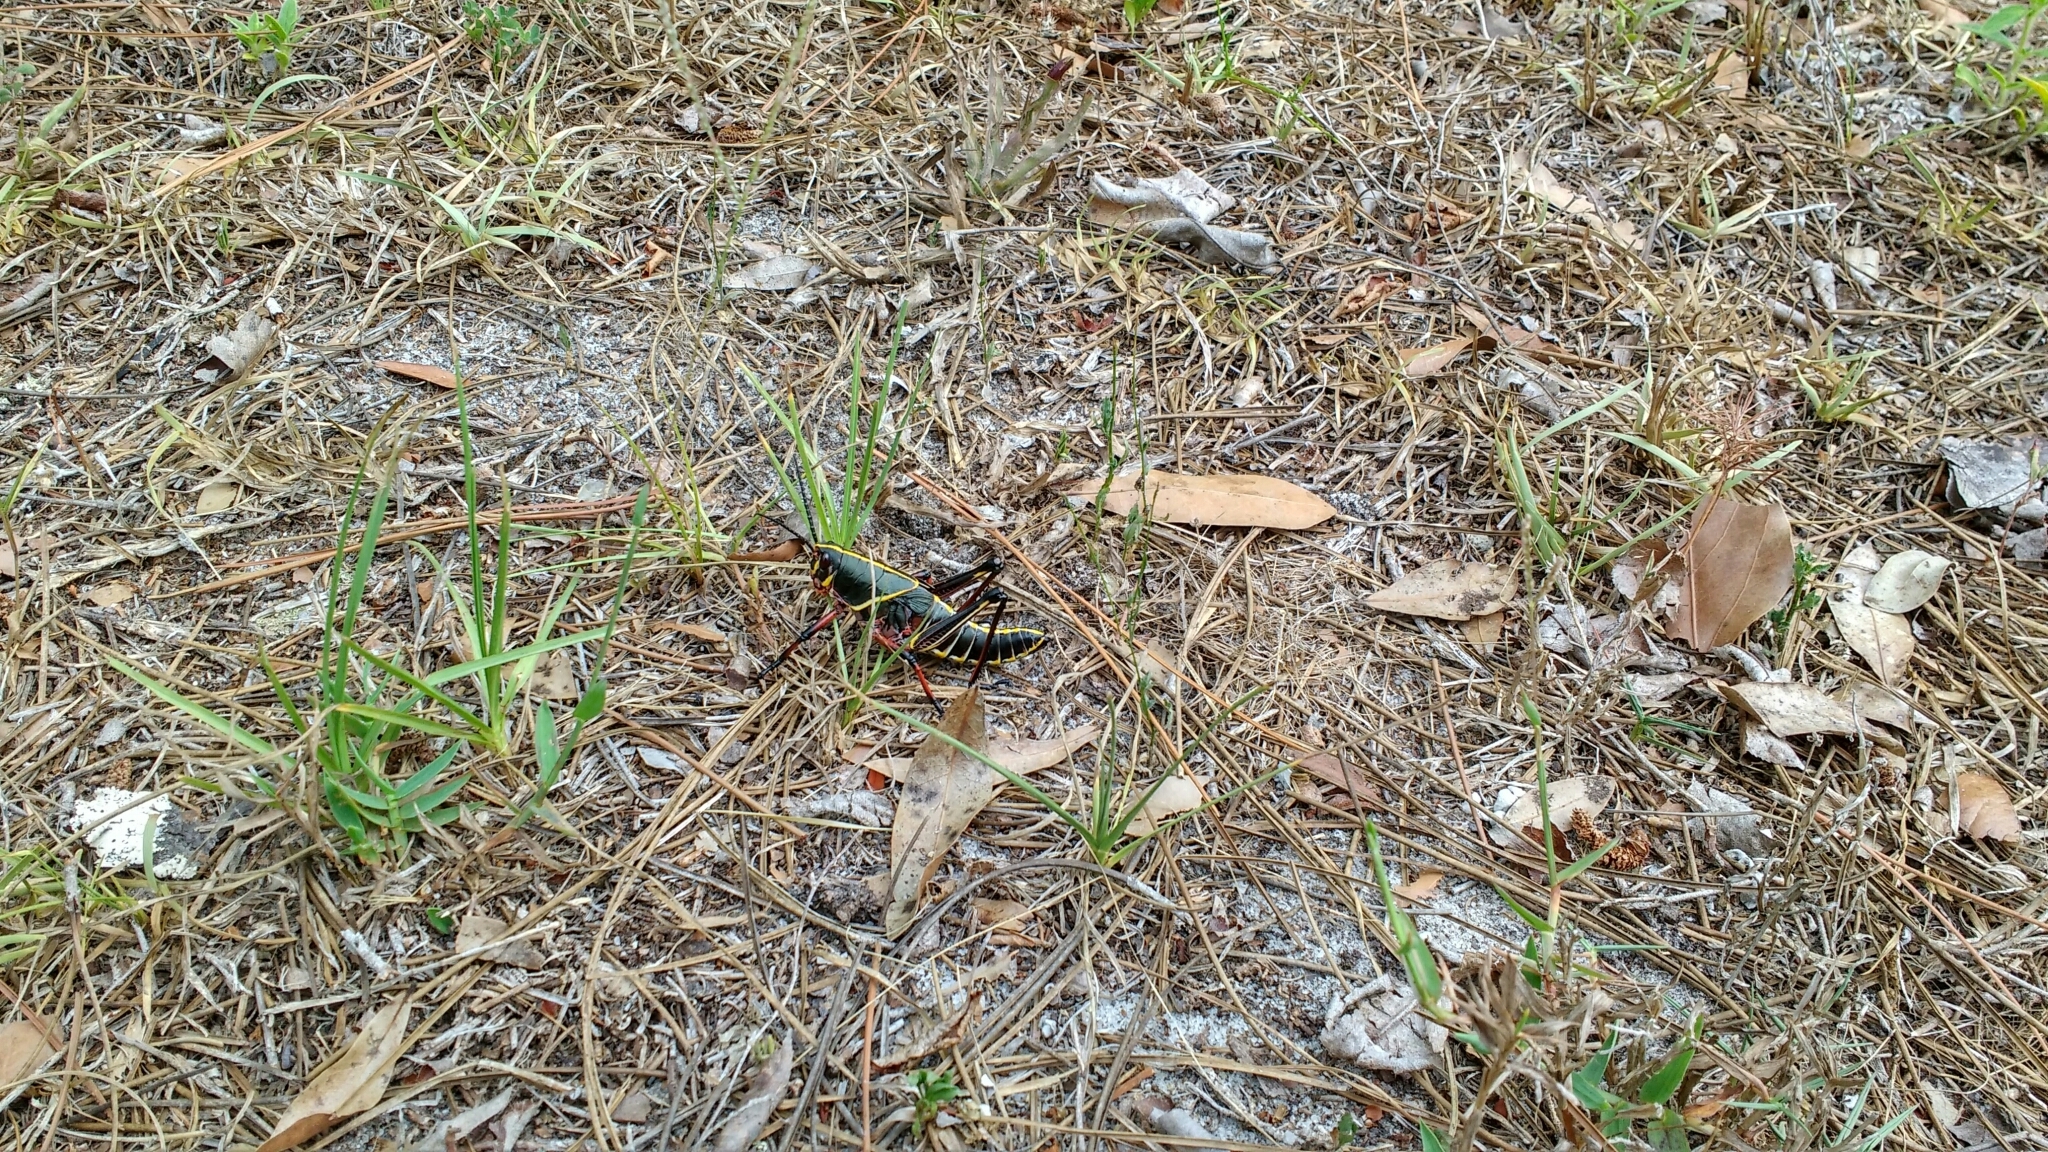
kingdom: Animalia
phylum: Arthropoda
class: Insecta
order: Orthoptera
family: Romaleidae
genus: Romalea
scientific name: Romalea microptera
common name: Eastern lubber grasshopper
